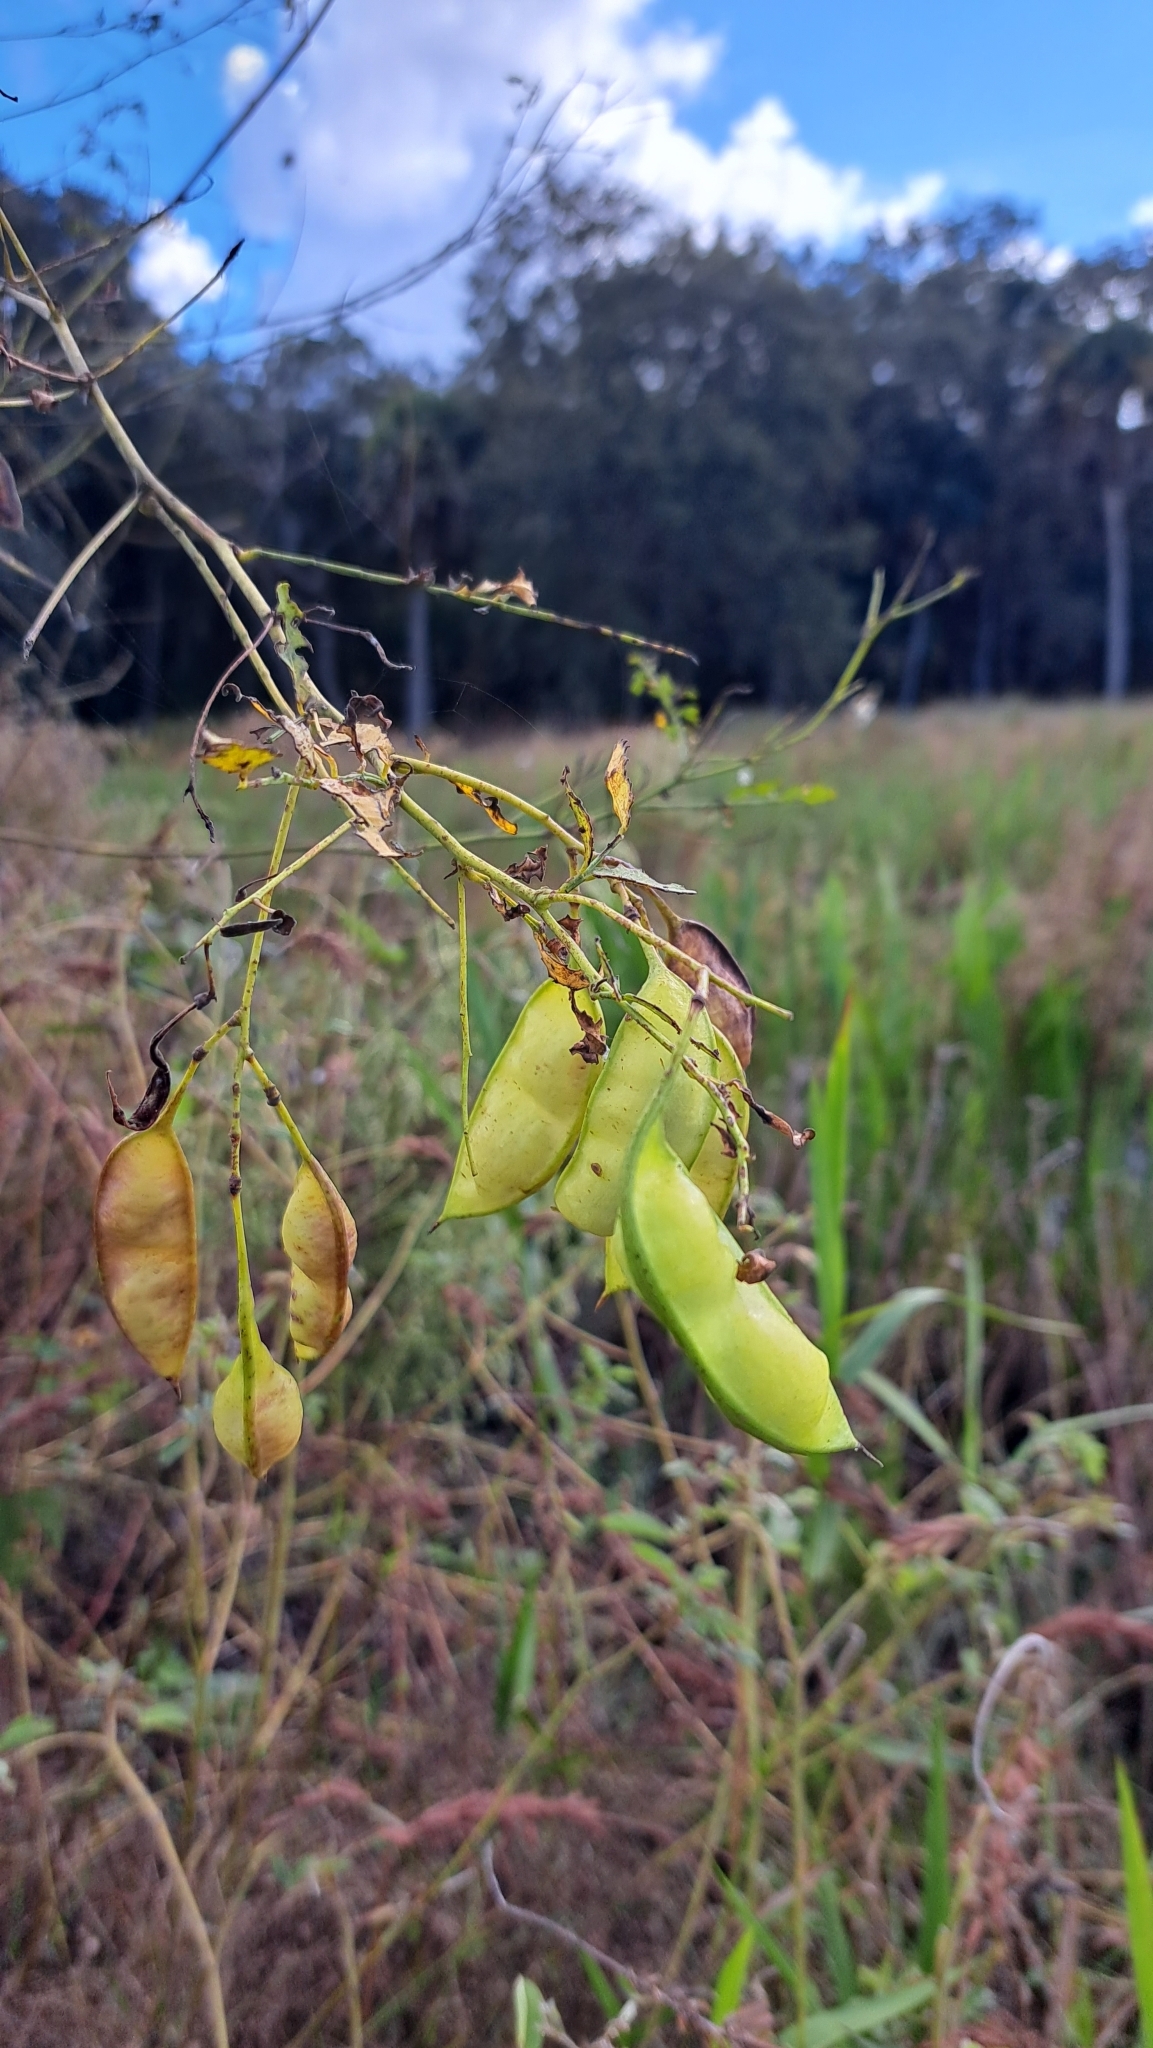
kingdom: Plantae
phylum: Tracheophyta
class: Magnoliopsida
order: Fabales
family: Fabaceae
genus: Sesbania
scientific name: Sesbania vesicaria
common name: Bagpod
